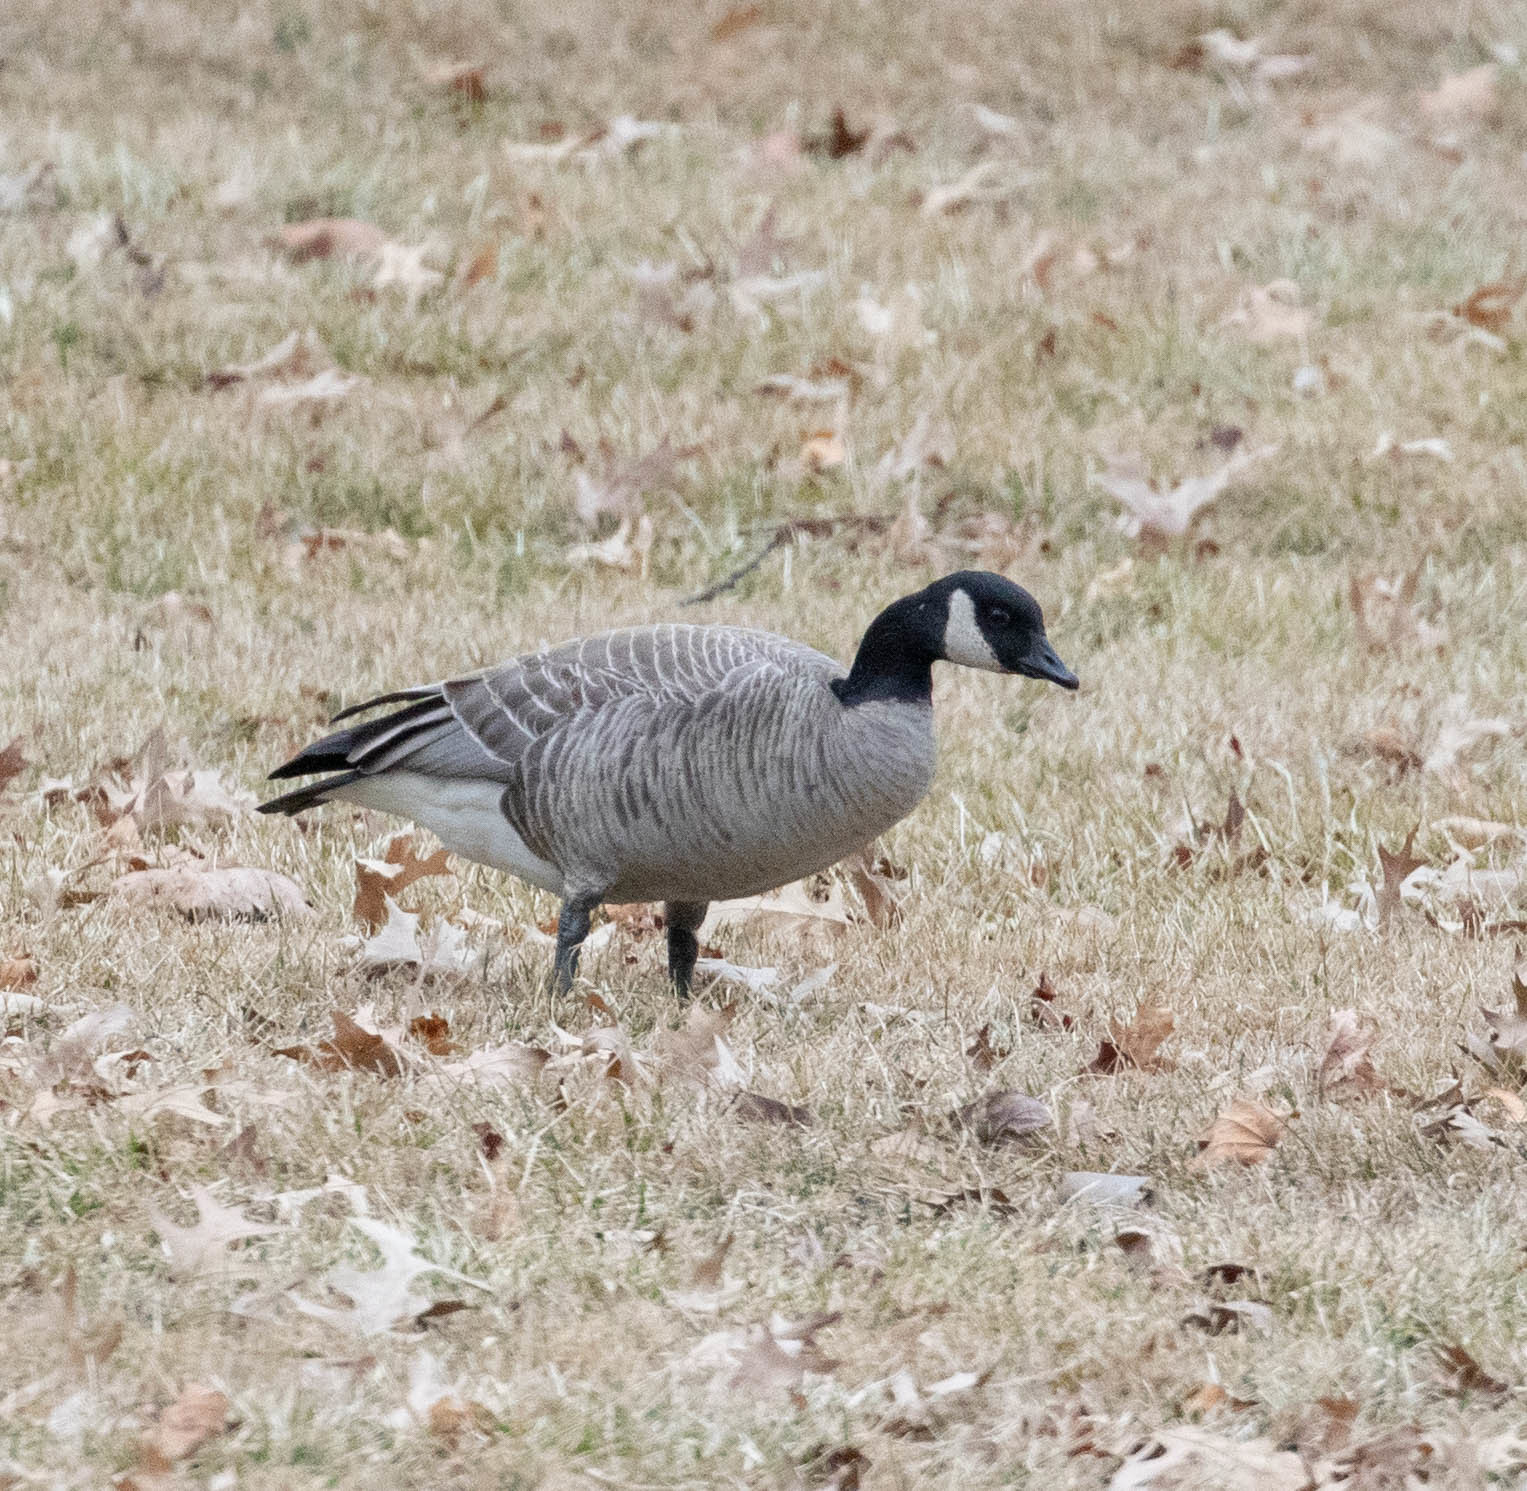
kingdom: Animalia
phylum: Chordata
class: Aves
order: Anseriformes
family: Anatidae
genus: Branta
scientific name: Branta hutchinsii
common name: Cackling goose
